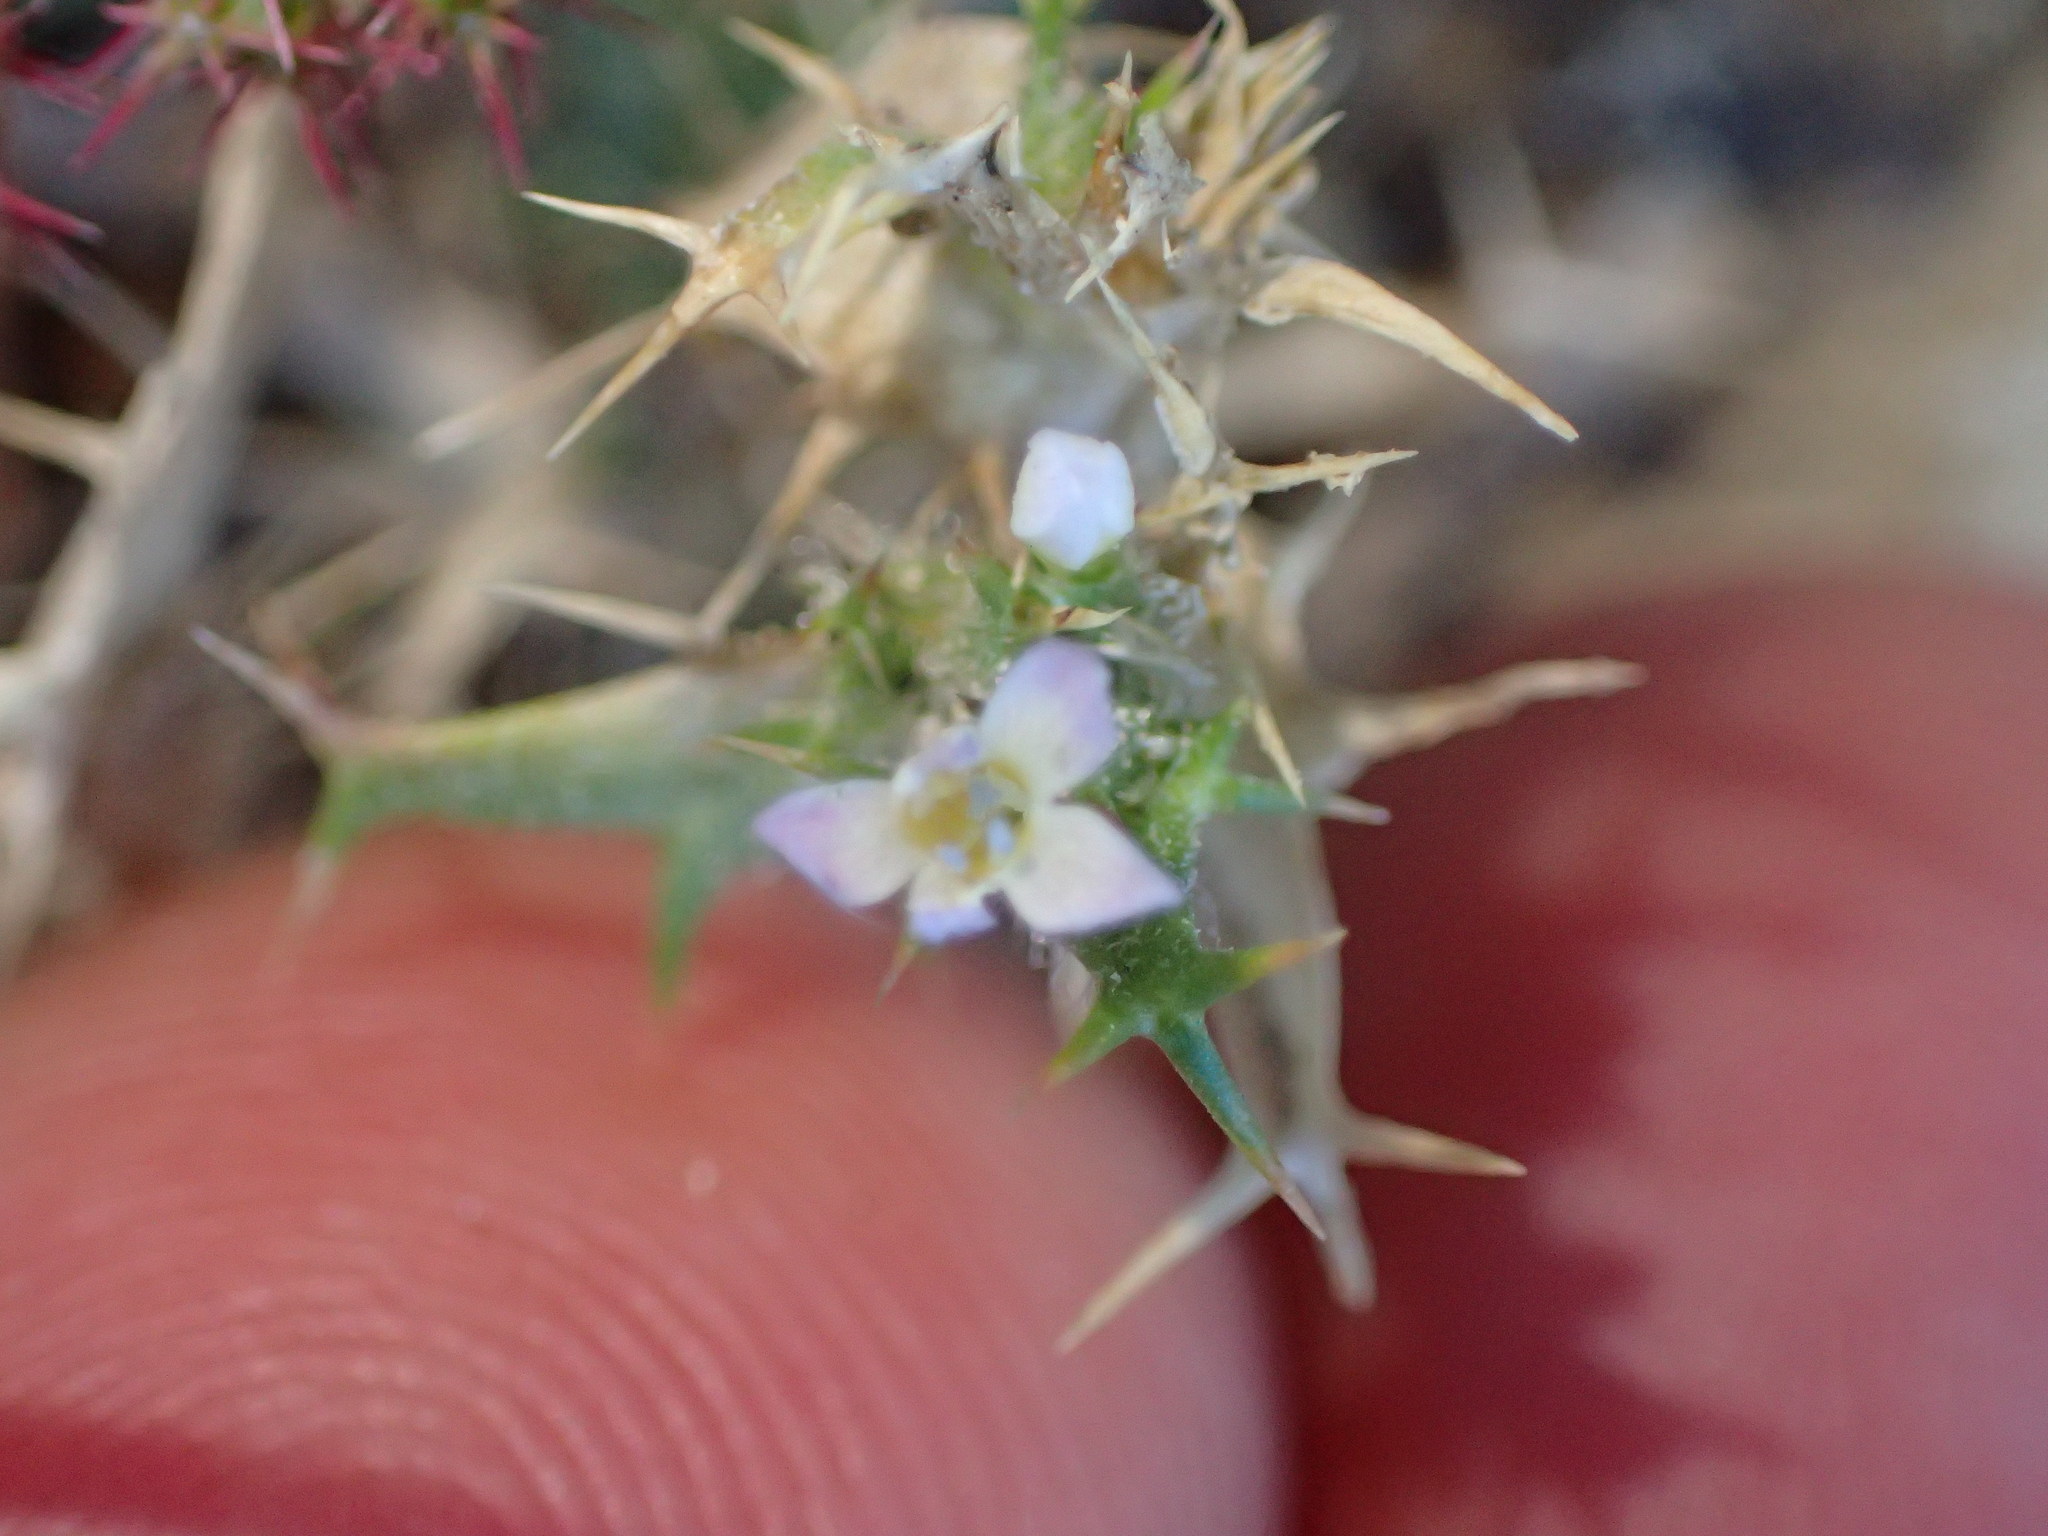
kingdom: Plantae
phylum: Tracheophyta
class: Magnoliopsida
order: Ericales
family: Polemoniaceae
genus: Navarretia
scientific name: Navarretia hamata
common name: Hooked navarretia
